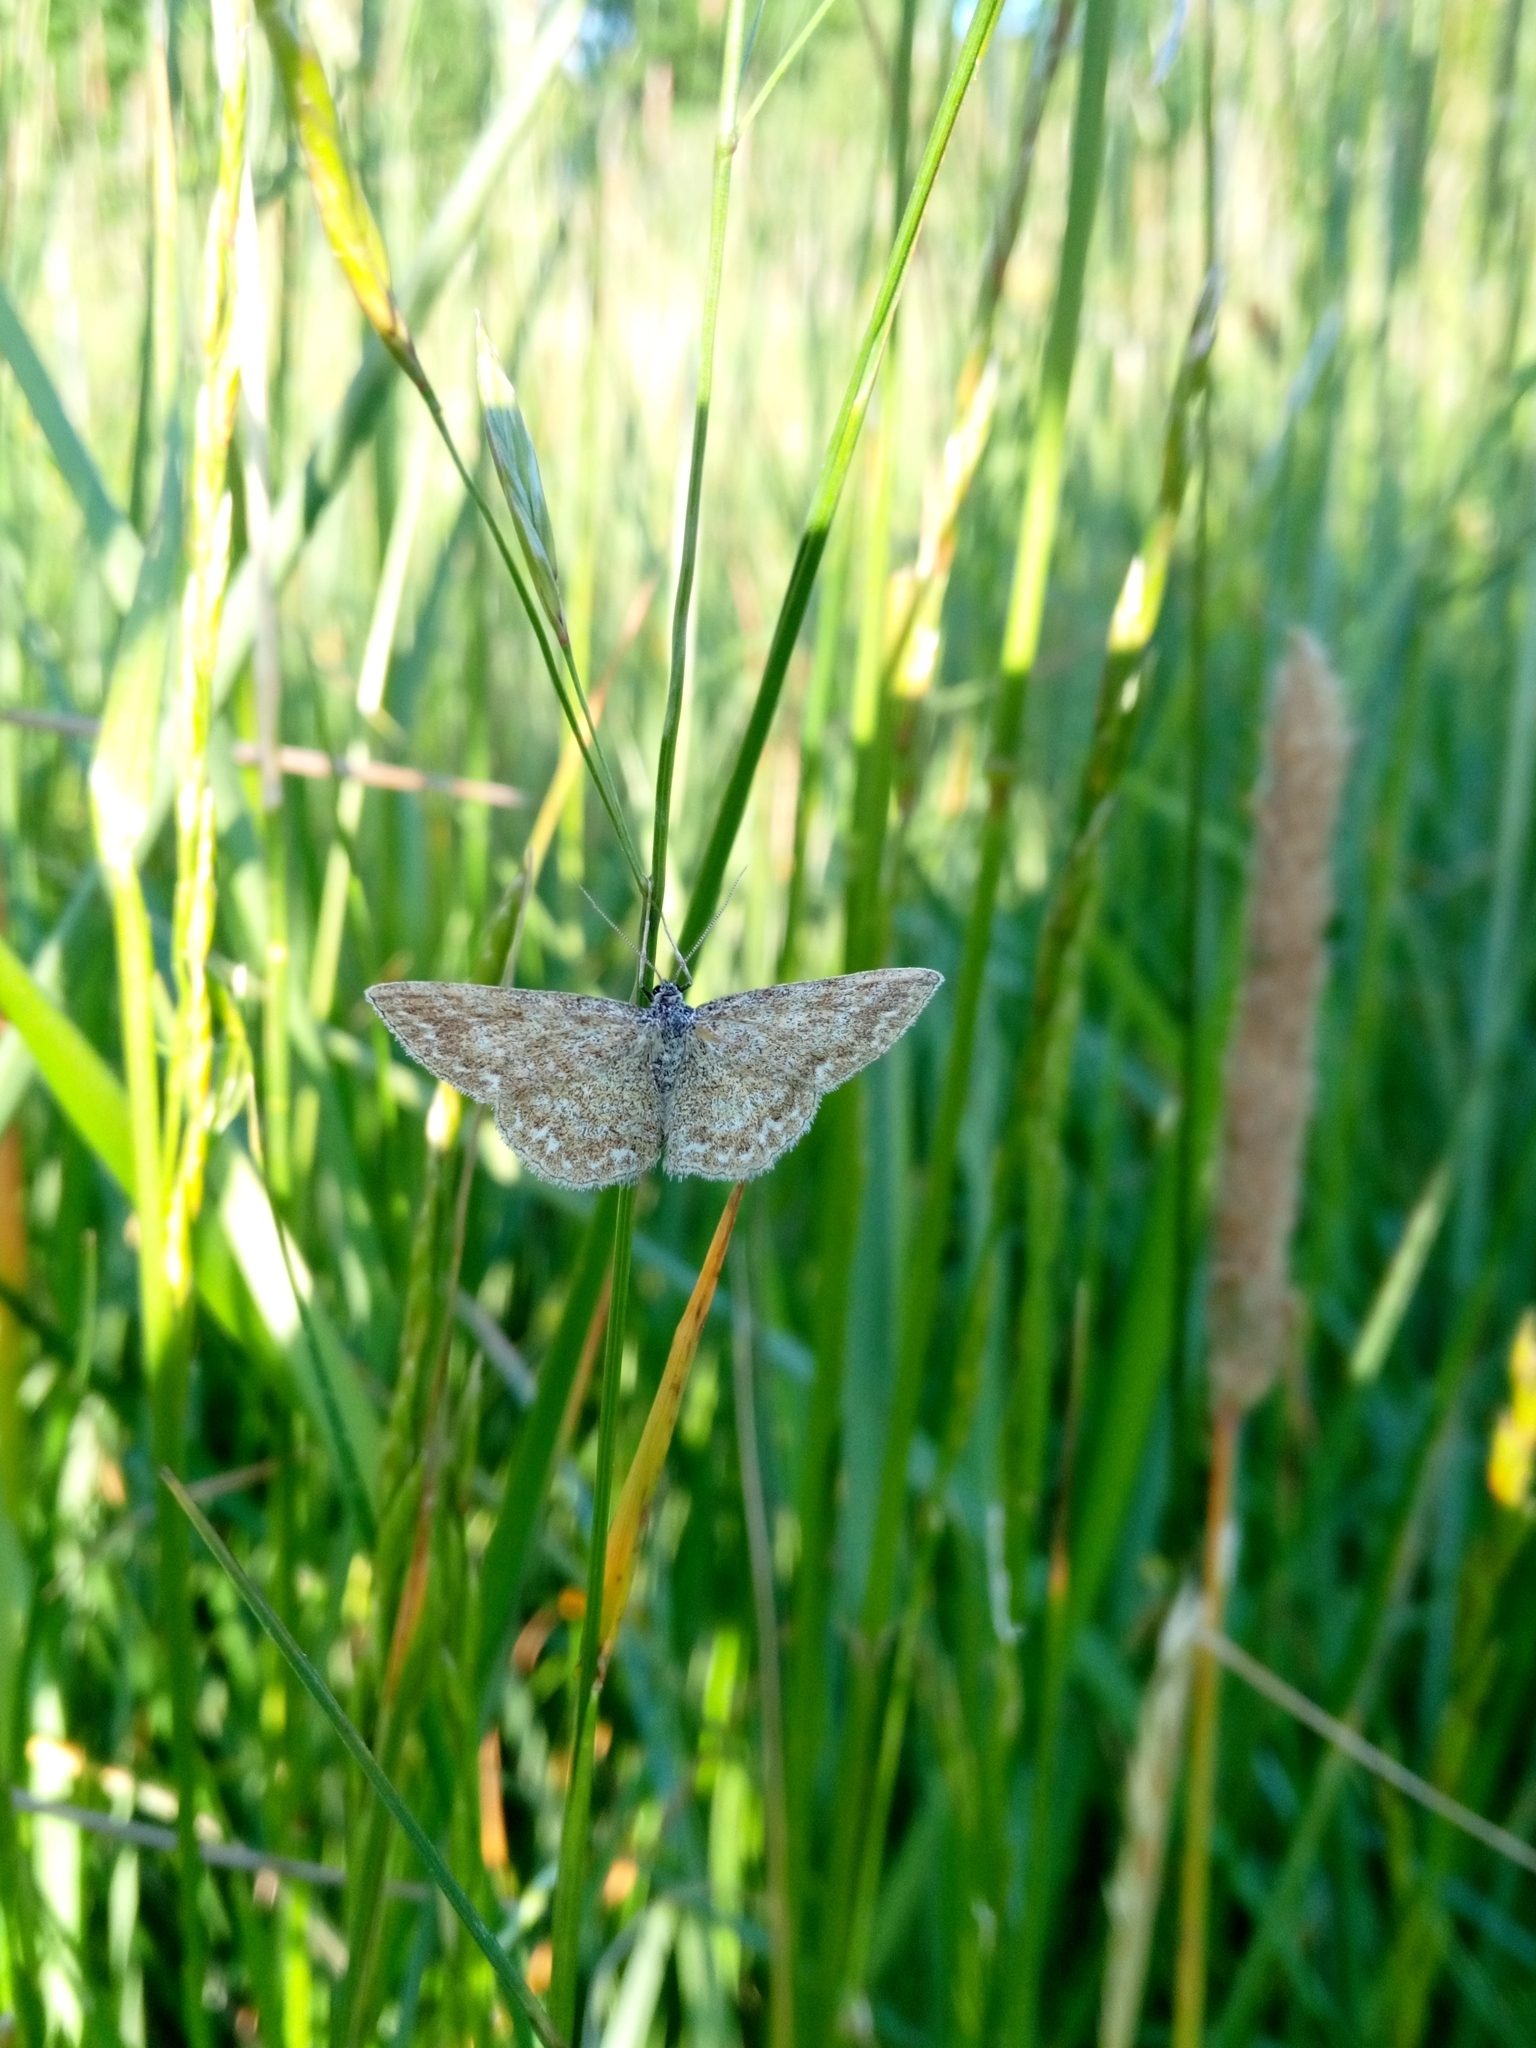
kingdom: Animalia
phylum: Arthropoda
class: Insecta
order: Lepidoptera
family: Geometridae
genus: Scopula
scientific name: Scopula immorata
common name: Lewes wave
